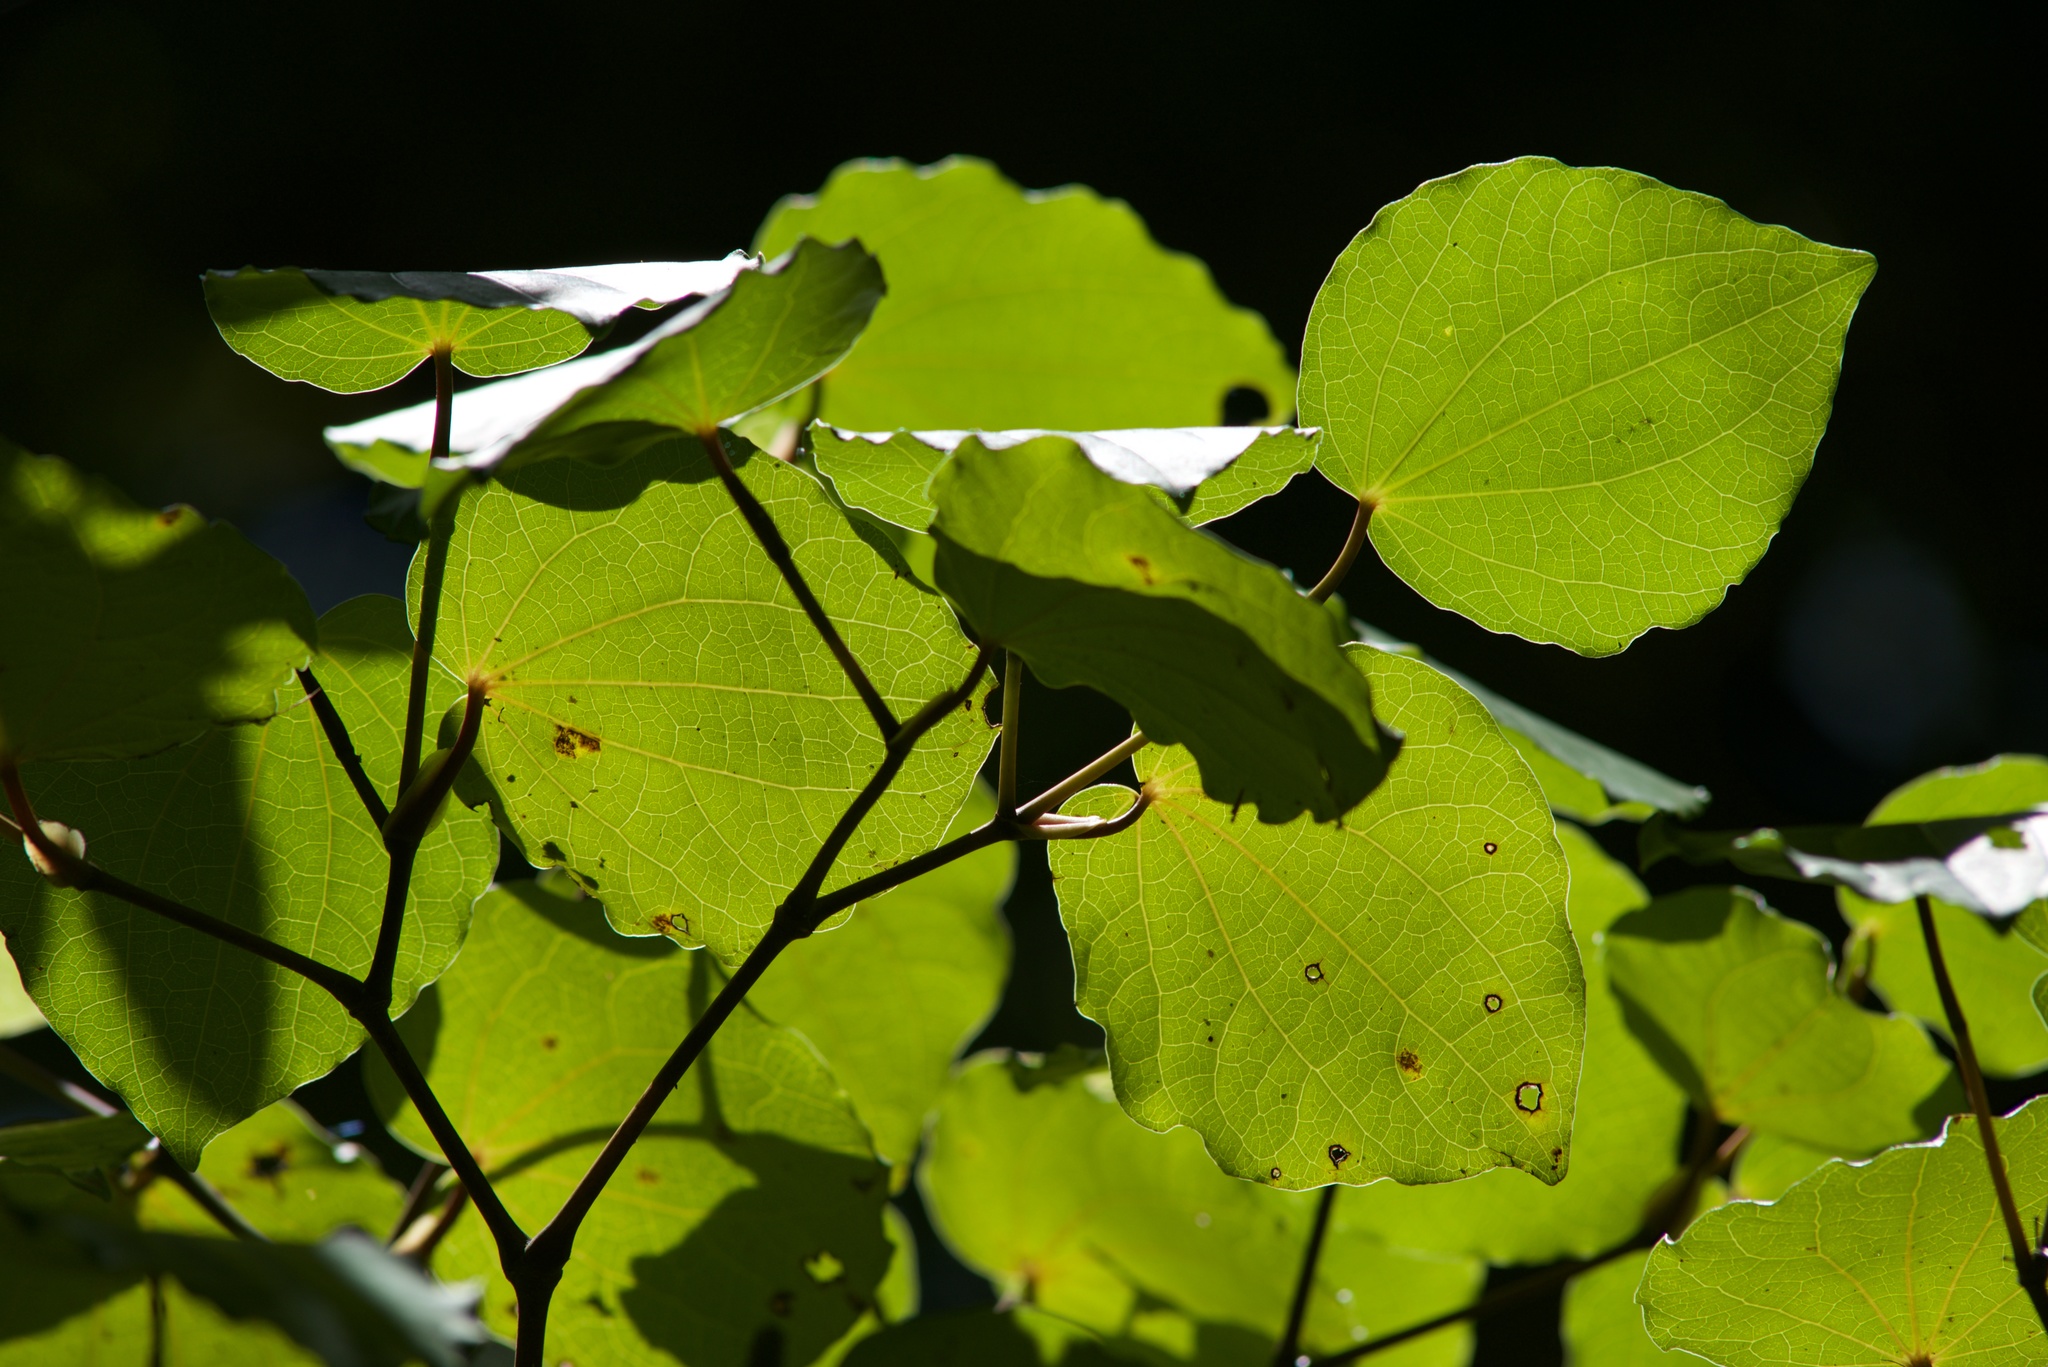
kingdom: Plantae
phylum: Tracheophyta
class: Magnoliopsida
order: Piperales
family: Piperaceae
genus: Macropiper
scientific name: Macropiper excelsum
